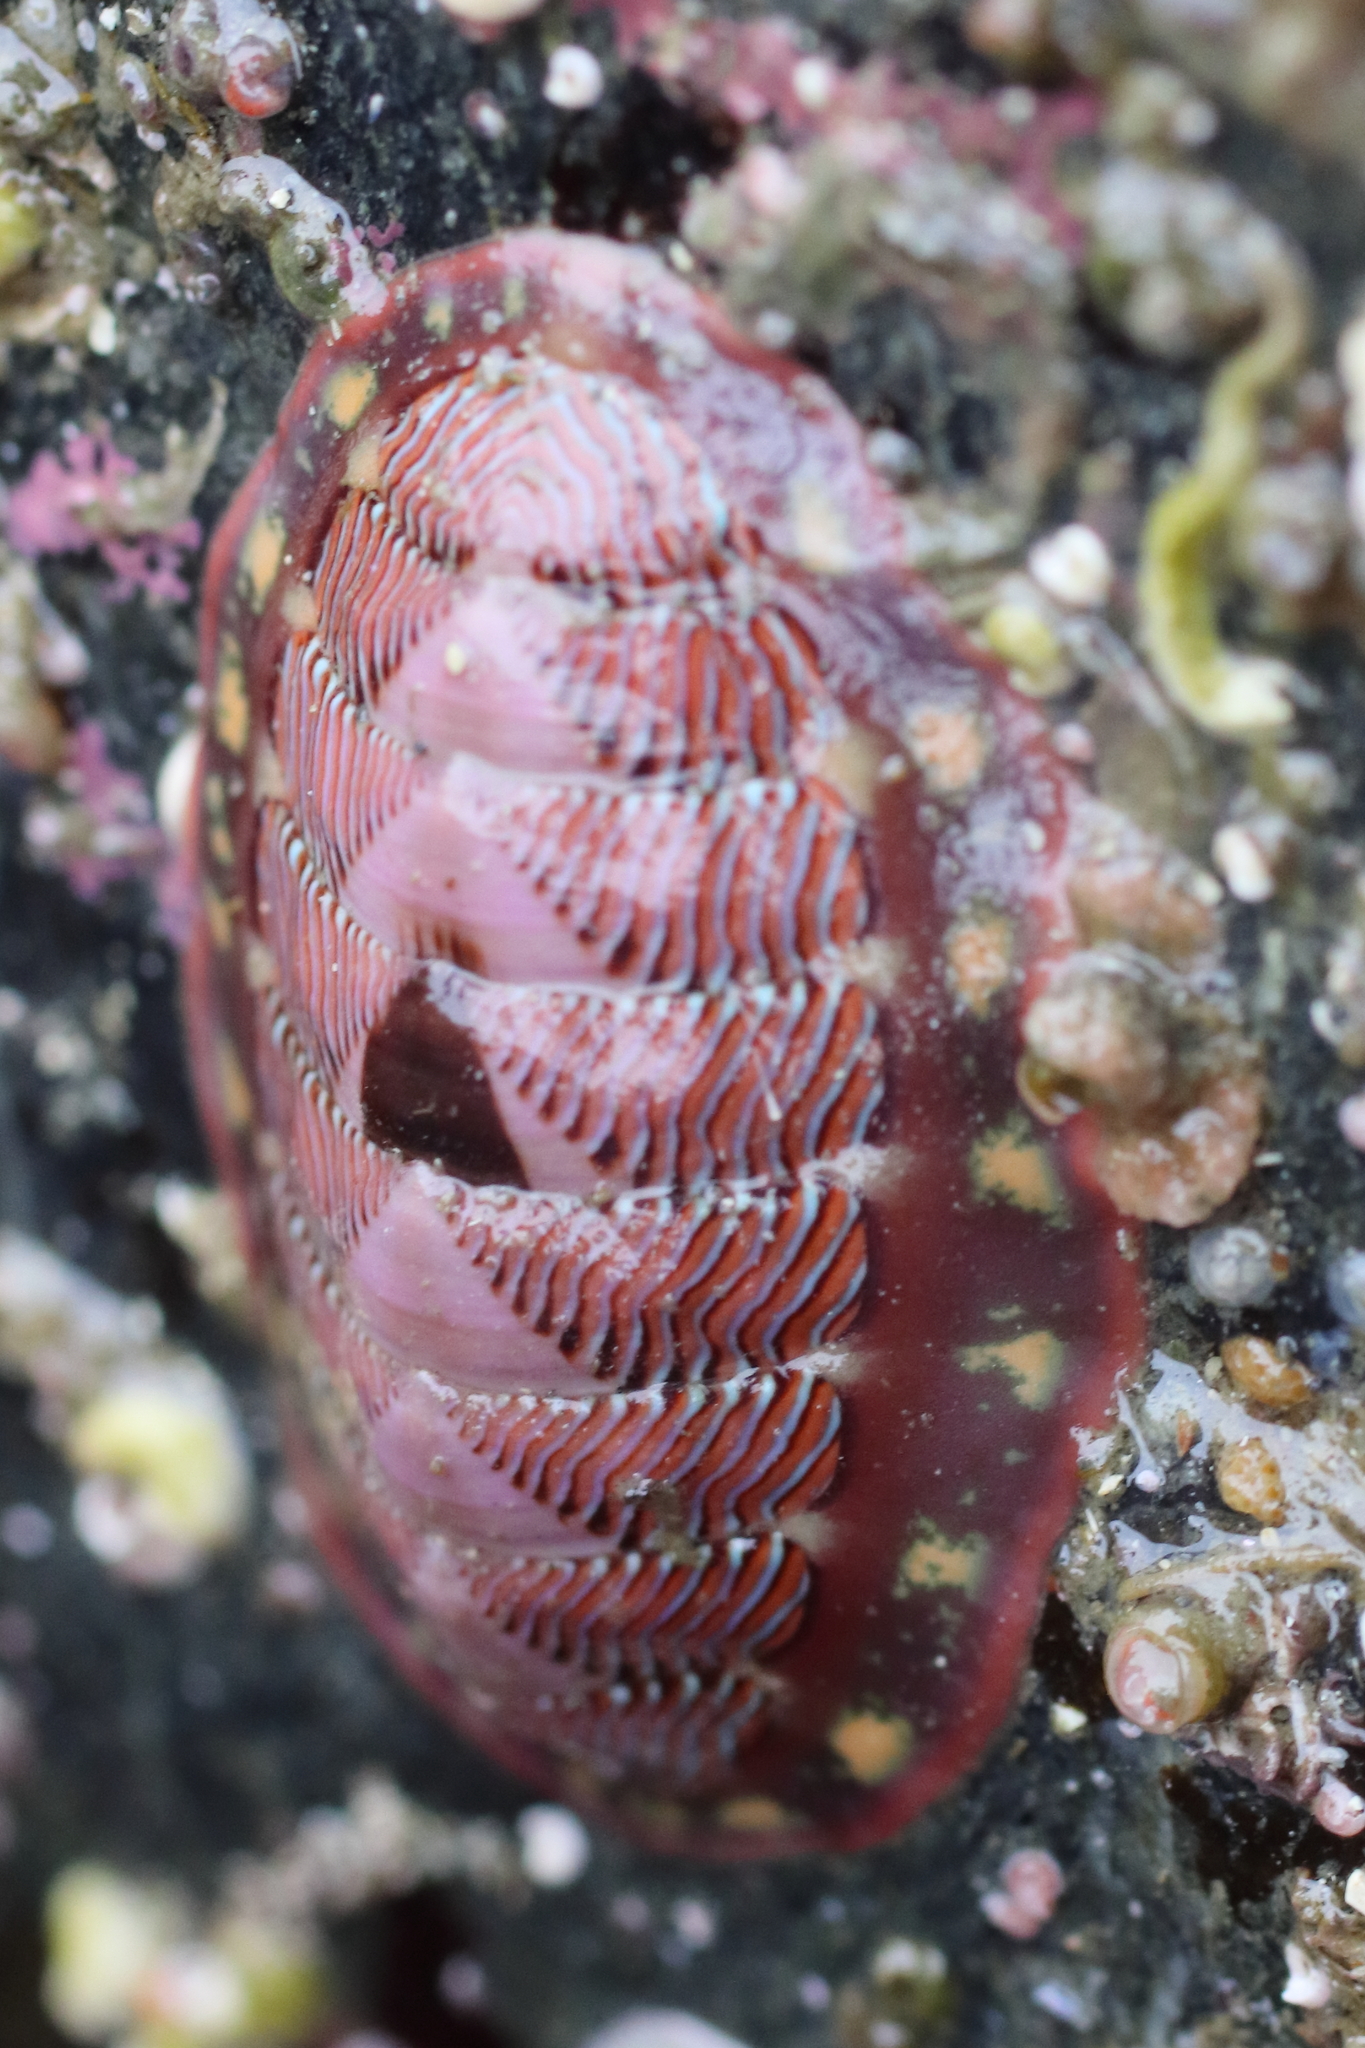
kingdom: Animalia
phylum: Mollusca
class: Polyplacophora
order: Chitonida
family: Tonicellidae
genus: Tonicella
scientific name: Tonicella lineata
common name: Lined chiton
